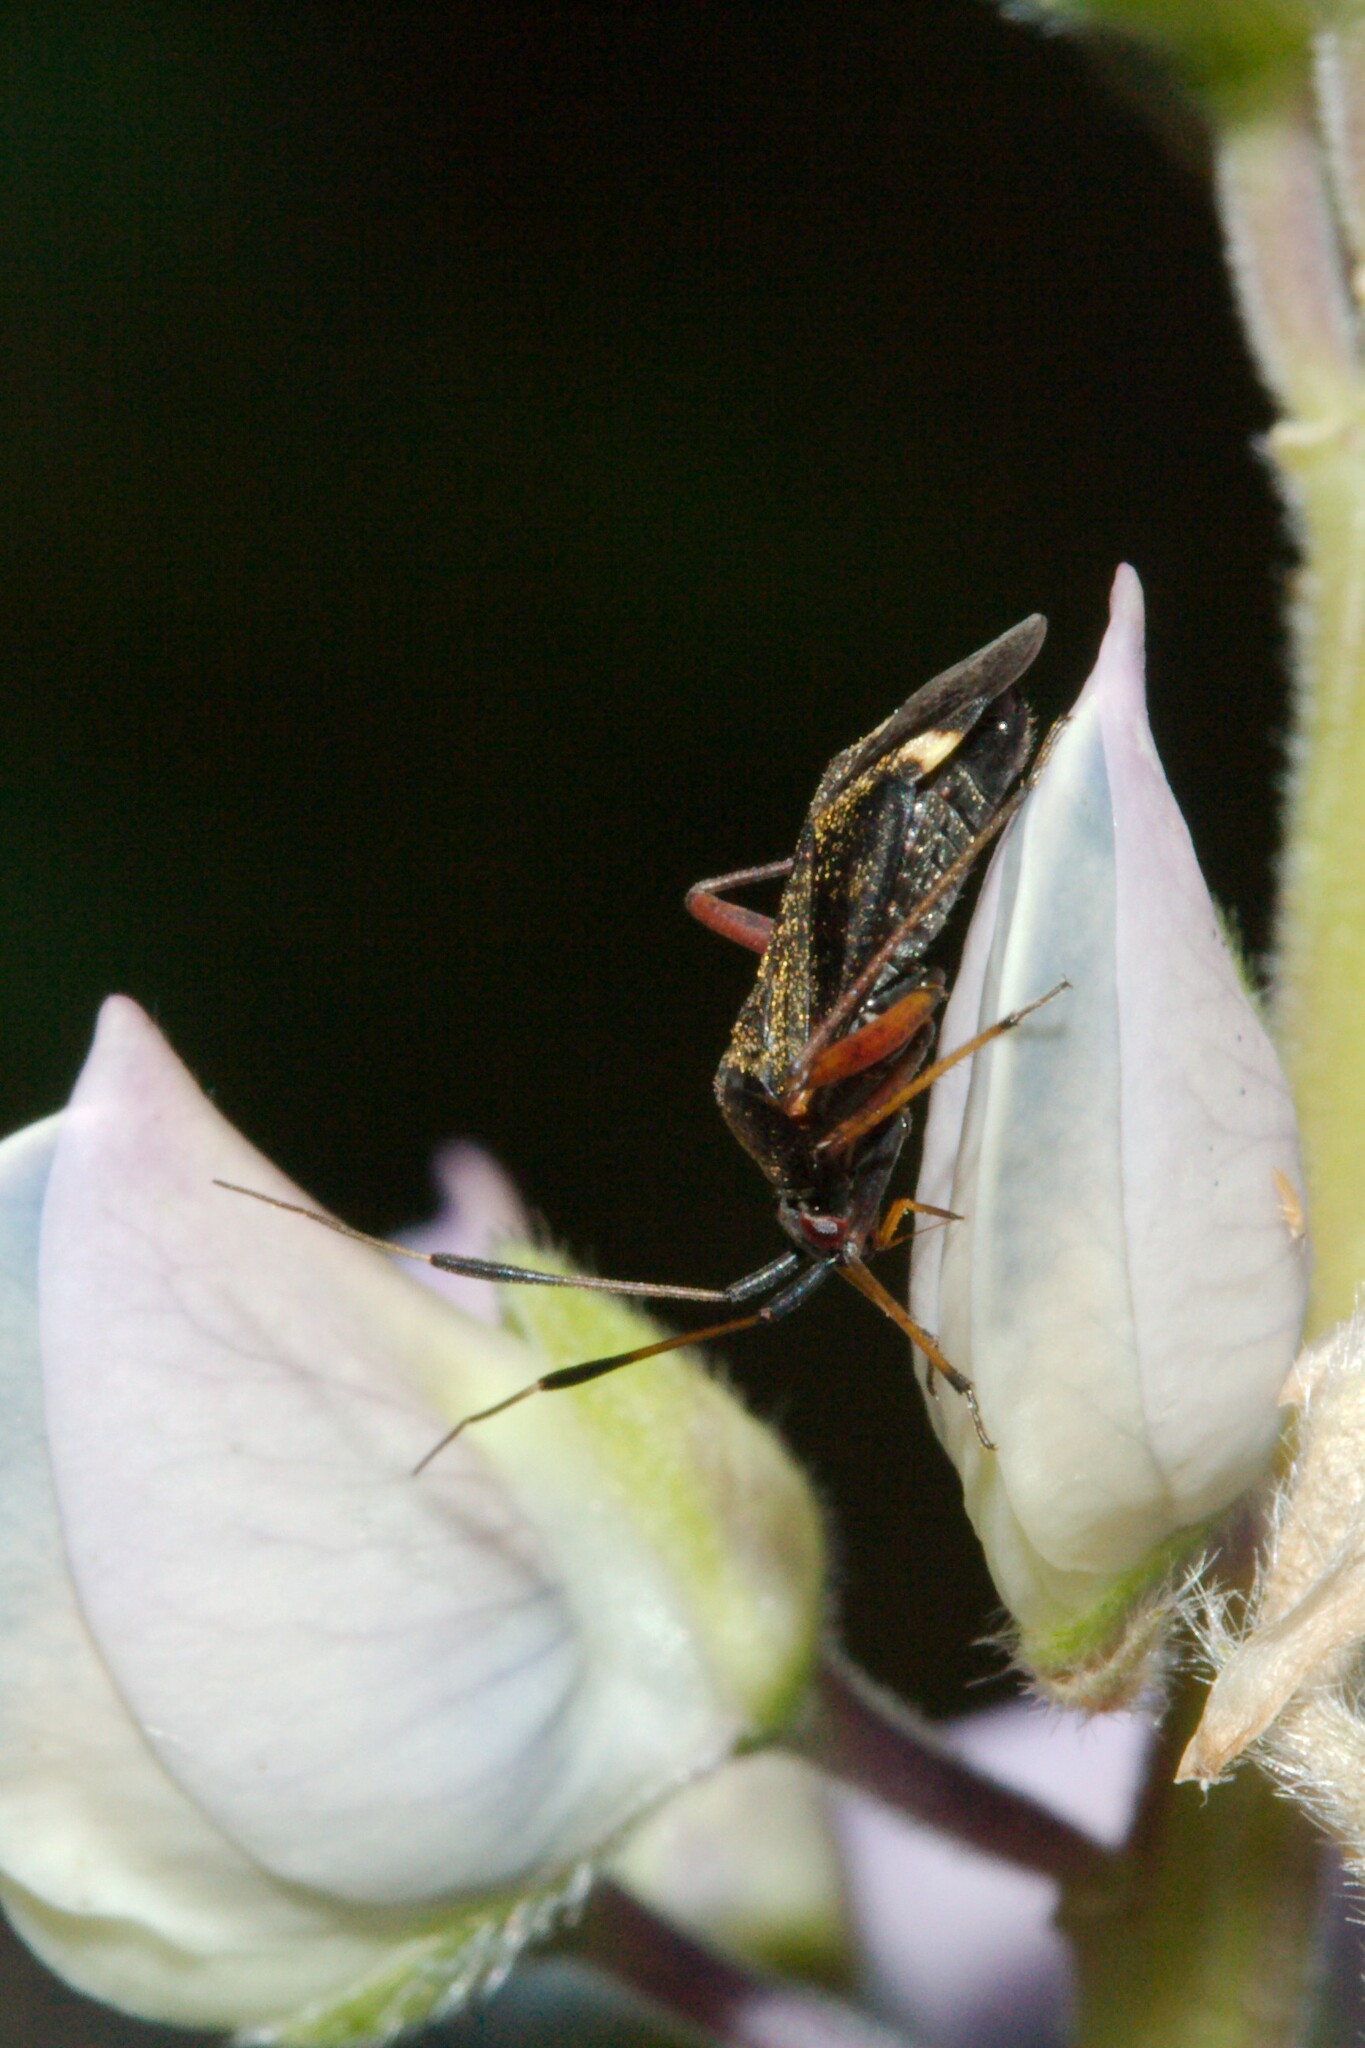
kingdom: Animalia
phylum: Arthropoda
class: Insecta
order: Hemiptera
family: Miridae
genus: Closterotomus
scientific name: Closterotomus biclavatus
